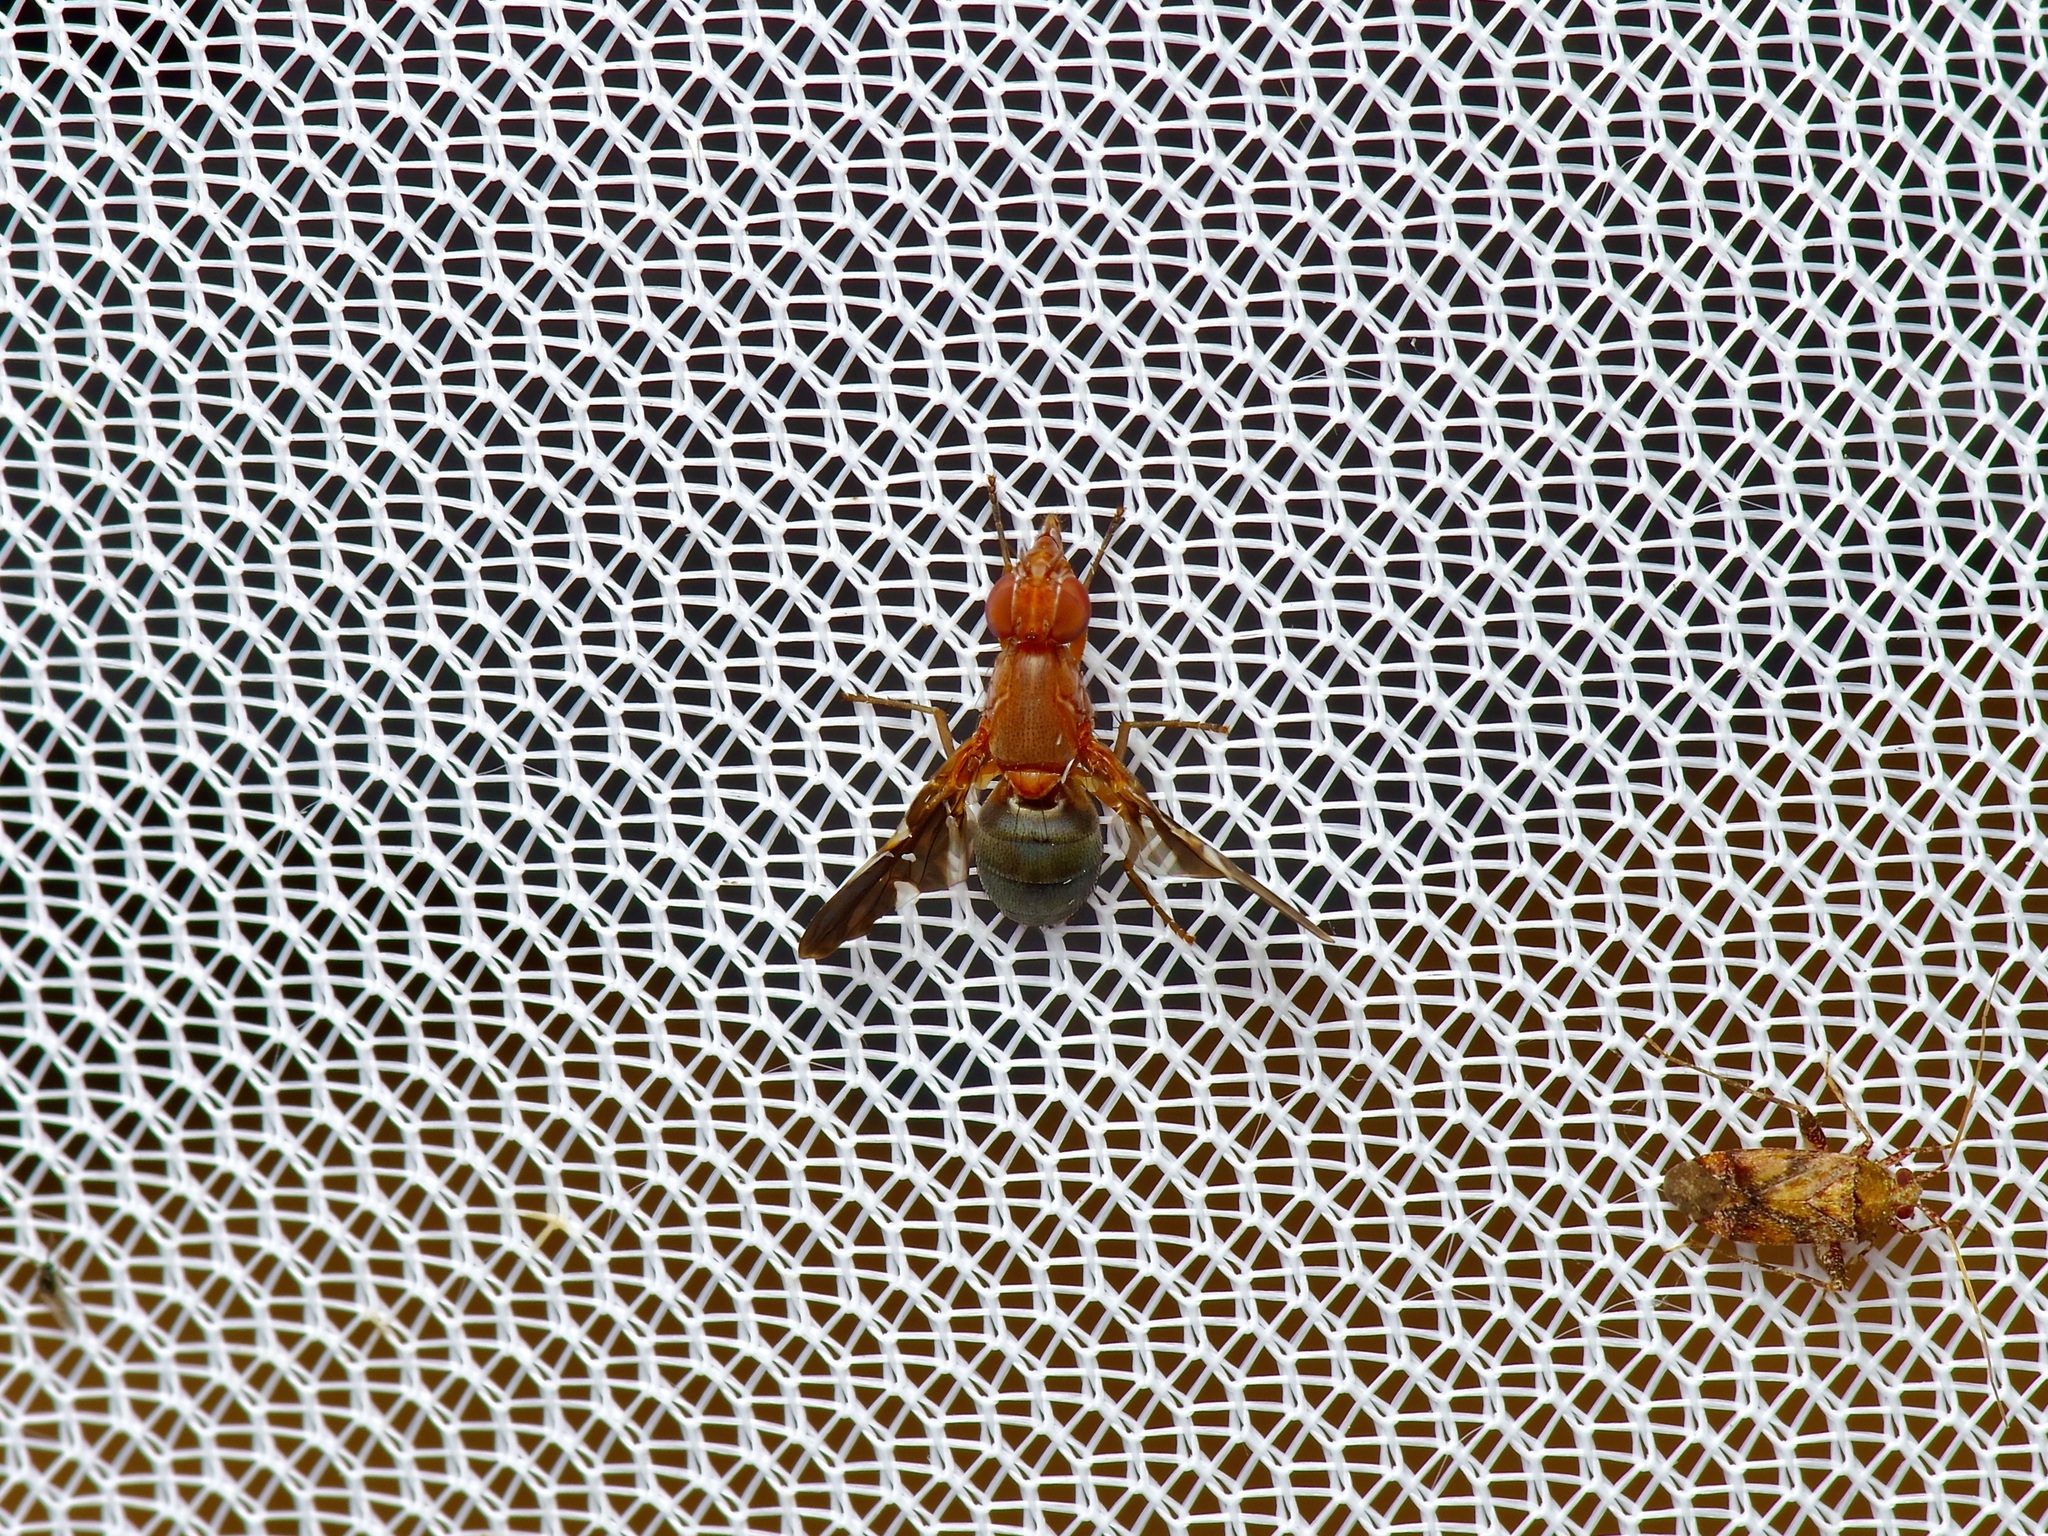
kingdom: Animalia
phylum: Arthropoda
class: Insecta
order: Diptera
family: Ulidiidae
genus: Delphinia
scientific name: Delphinia picta
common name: Common picture-winged fly
